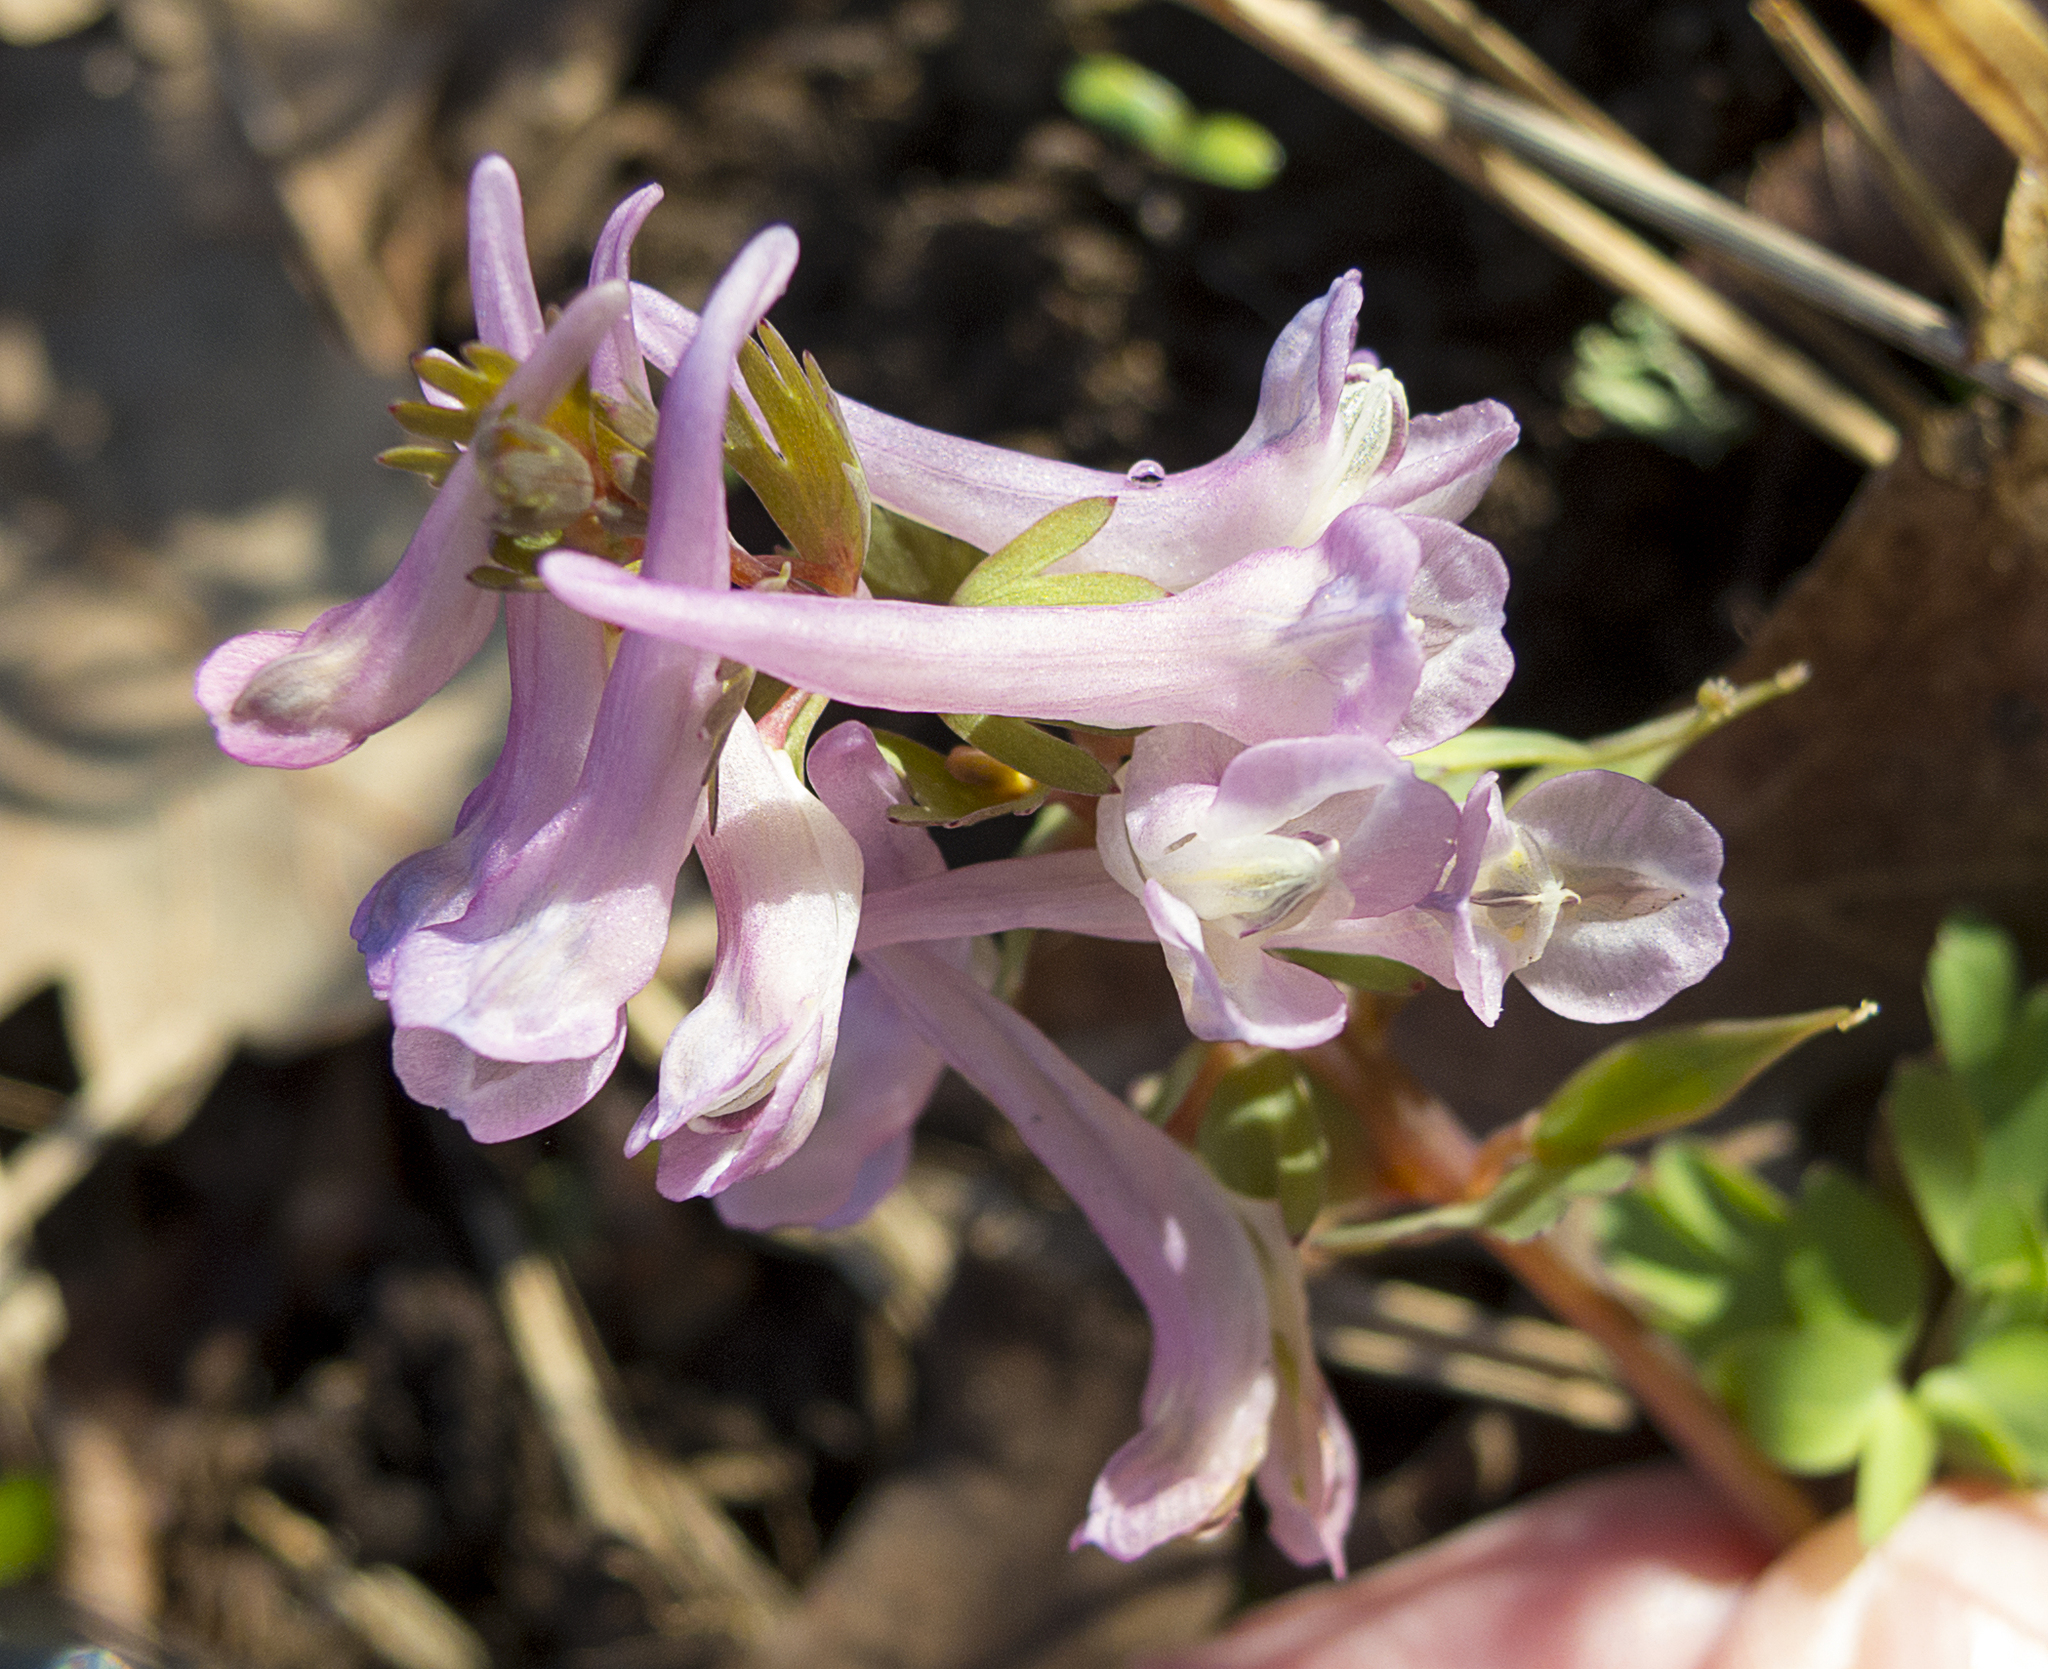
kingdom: Plantae
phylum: Tracheophyta
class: Magnoliopsida
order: Ranunculales
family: Papaveraceae
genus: Corydalis
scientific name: Corydalis solida
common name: Bird-in-a-bush
